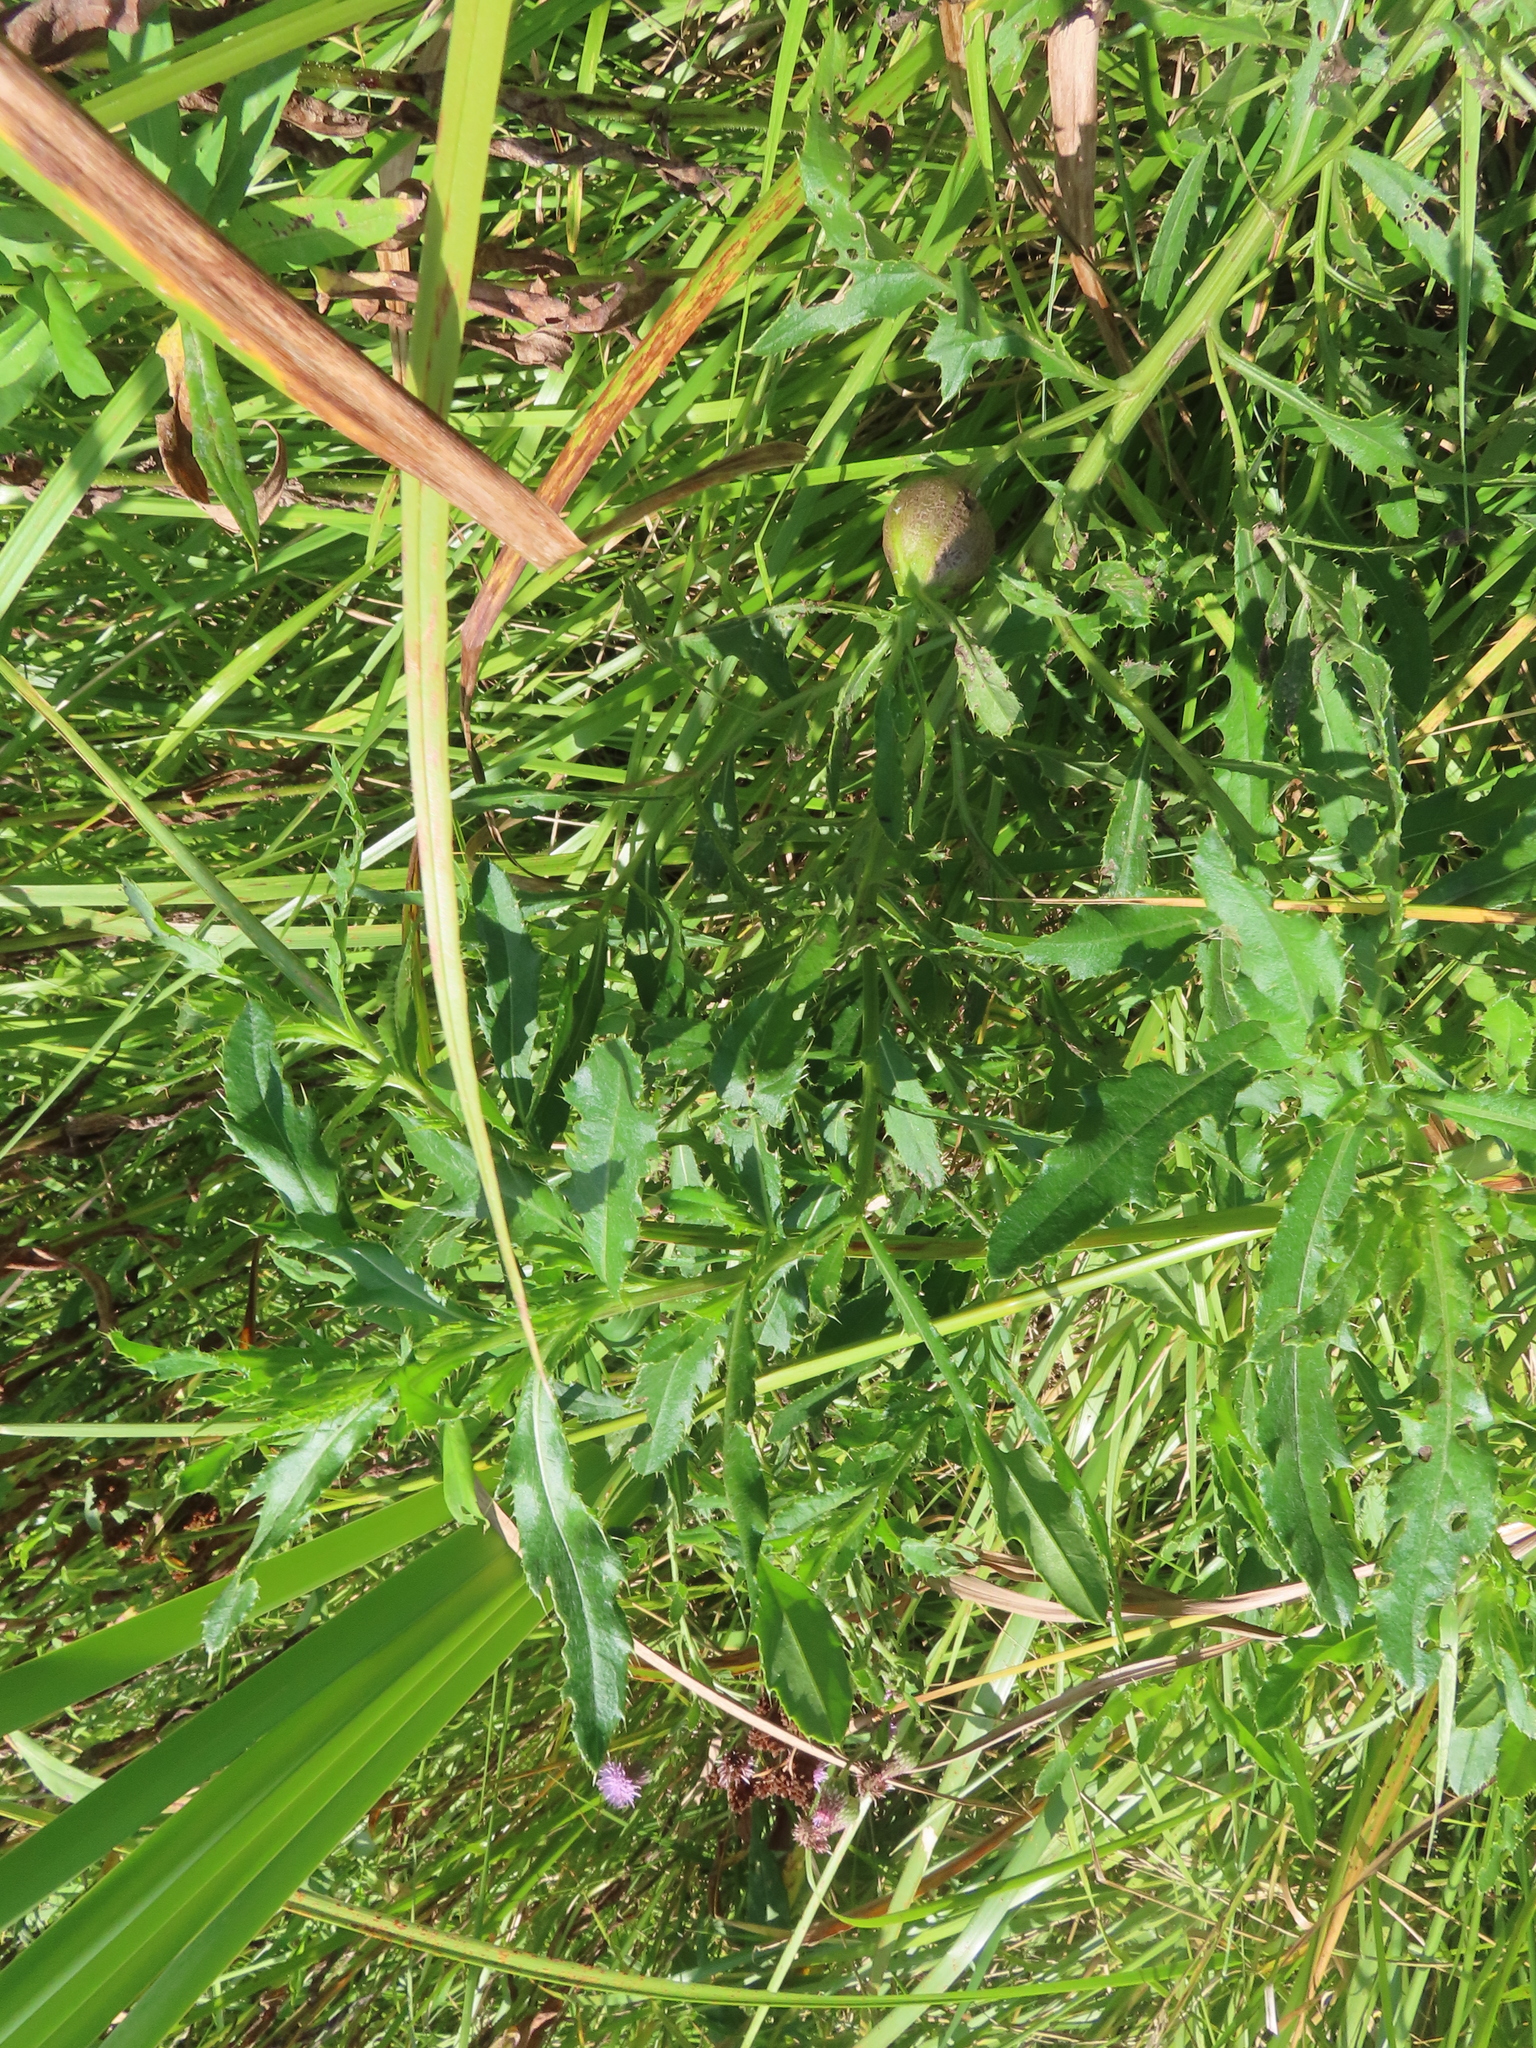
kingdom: Plantae
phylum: Tracheophyta
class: Magnoliopsida
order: Asterales
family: Asteraceae
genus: Cirsium
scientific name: Cirsium arvense
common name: Creeping thistle
